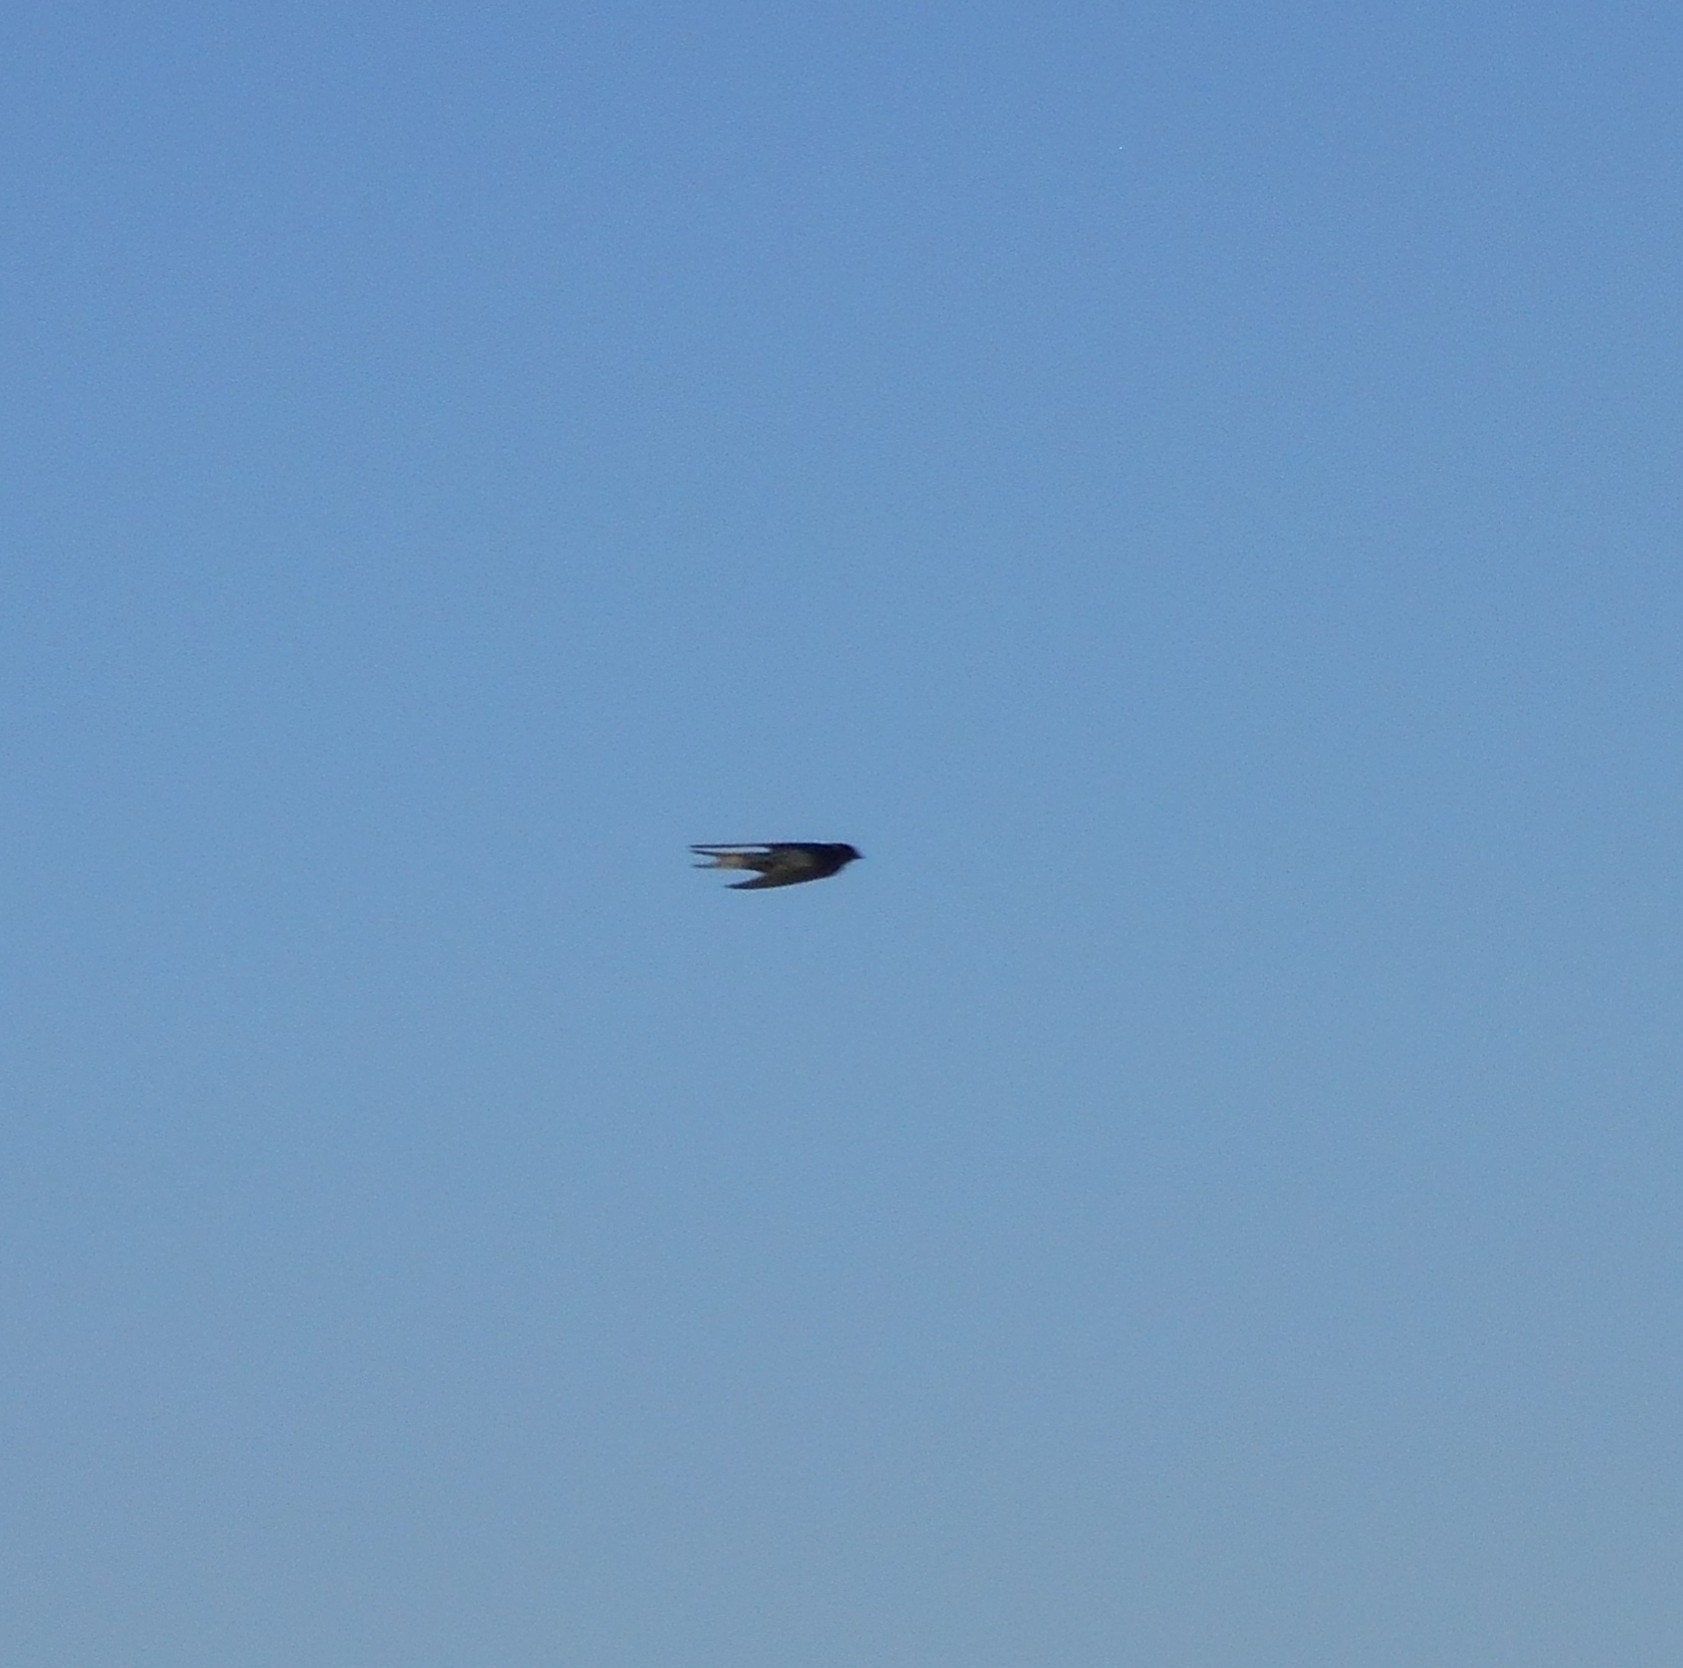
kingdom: Animalia
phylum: Chordata
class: Aves
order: Passeriformes
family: Hirundinidae
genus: Hirundo
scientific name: Hirundo rustica
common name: Barn swallow
